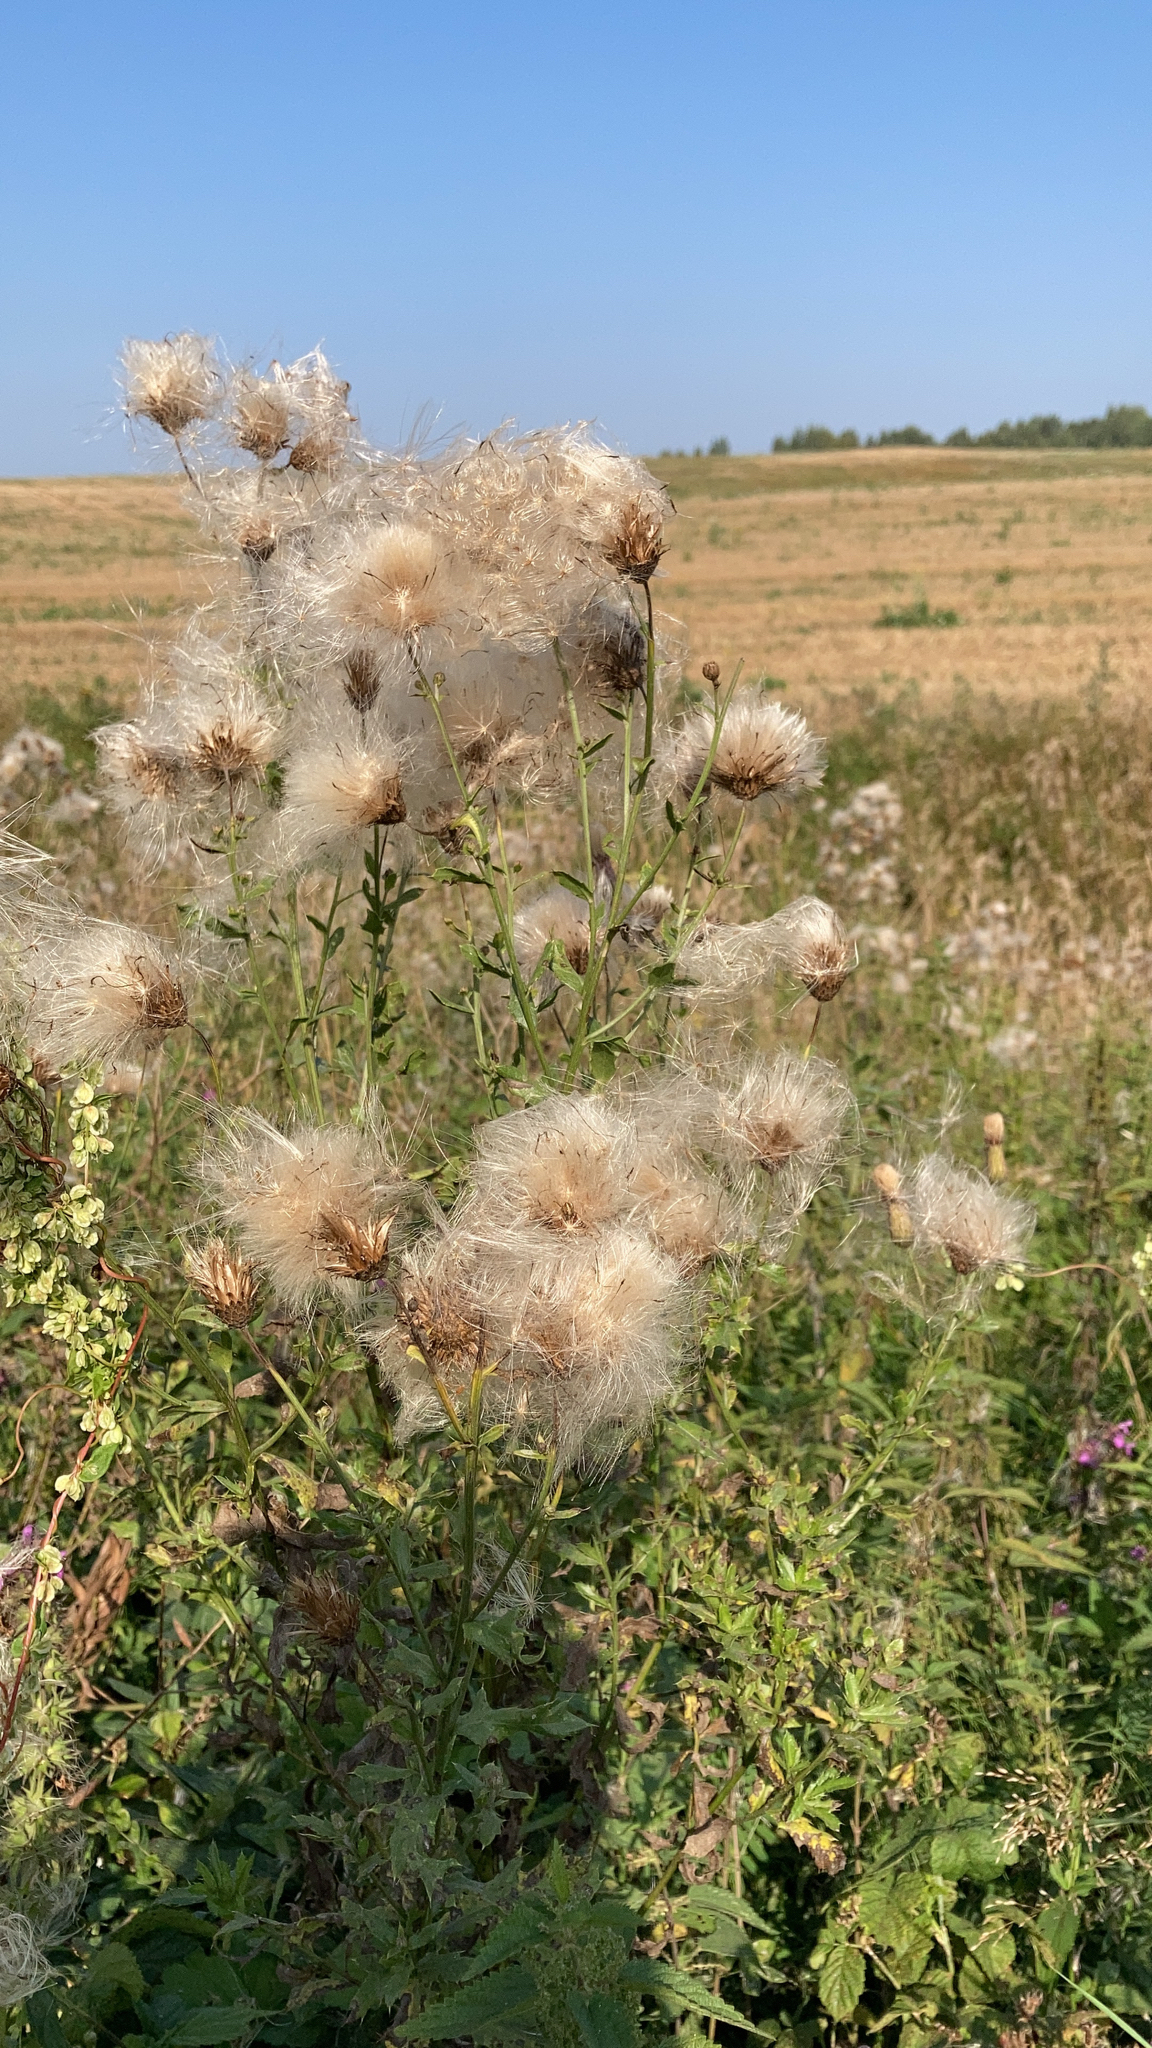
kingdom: Plantae
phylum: Tracheophyta
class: Magnoliopsida
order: Asterales
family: Asteraceae
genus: Cirsium
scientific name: Cirsium arvense
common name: Creeping thistle
